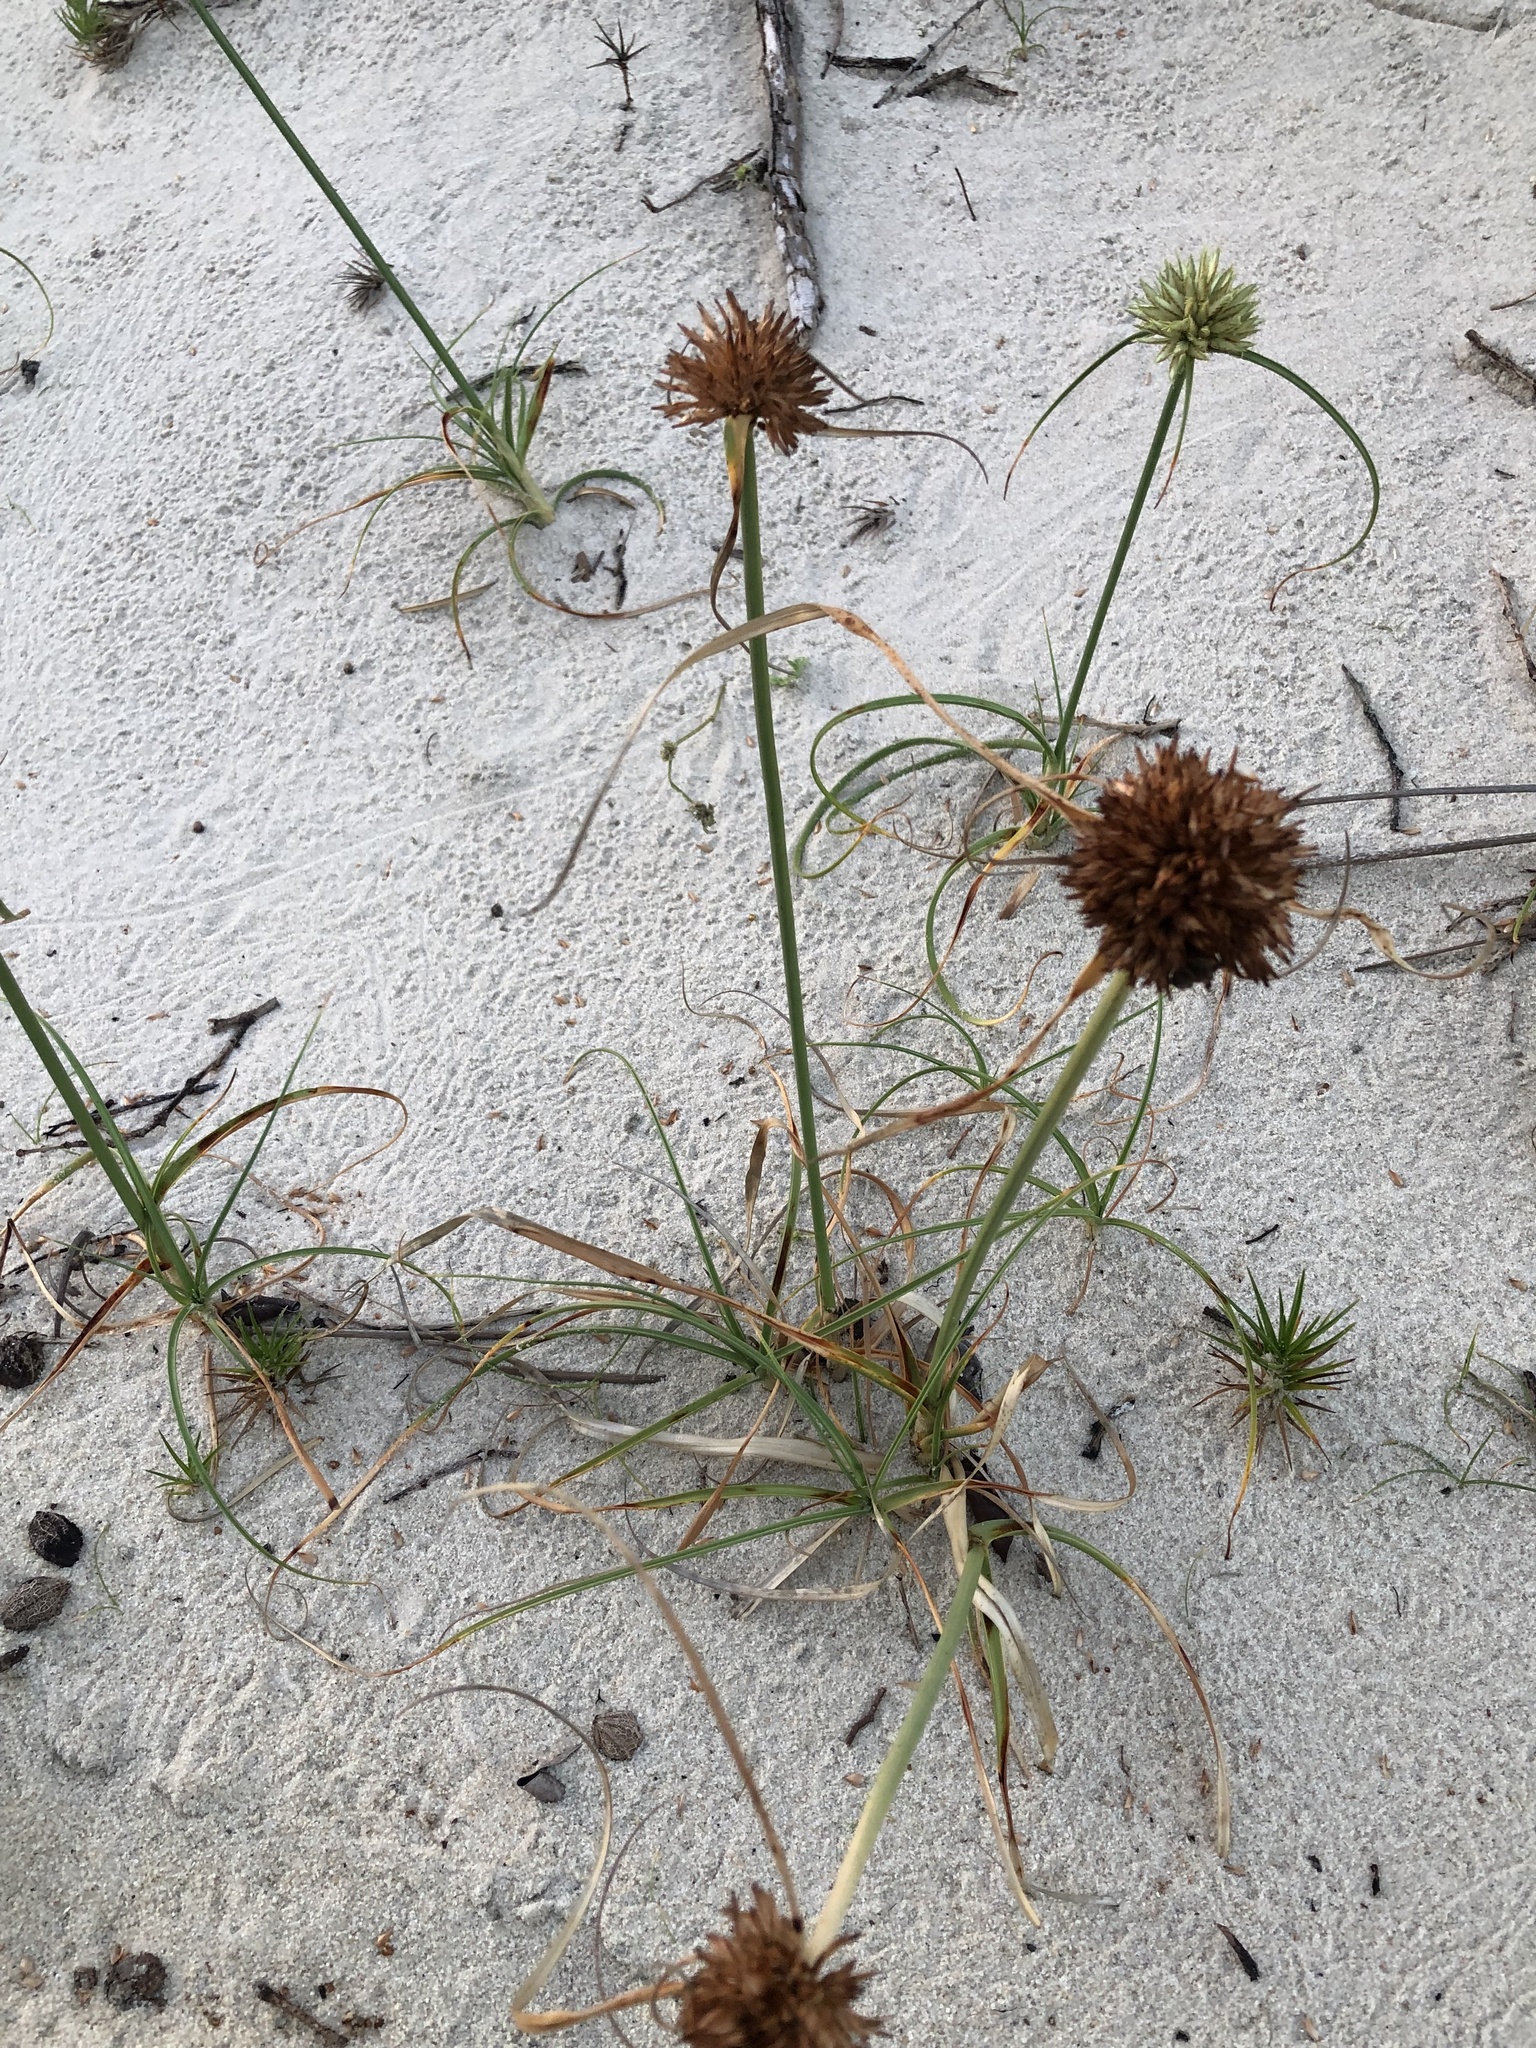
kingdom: Plantae
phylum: Tracheophyta
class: Liliopsida
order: Poales
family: Cyperaceae
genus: Cyperus
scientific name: Cyperus crassipes
